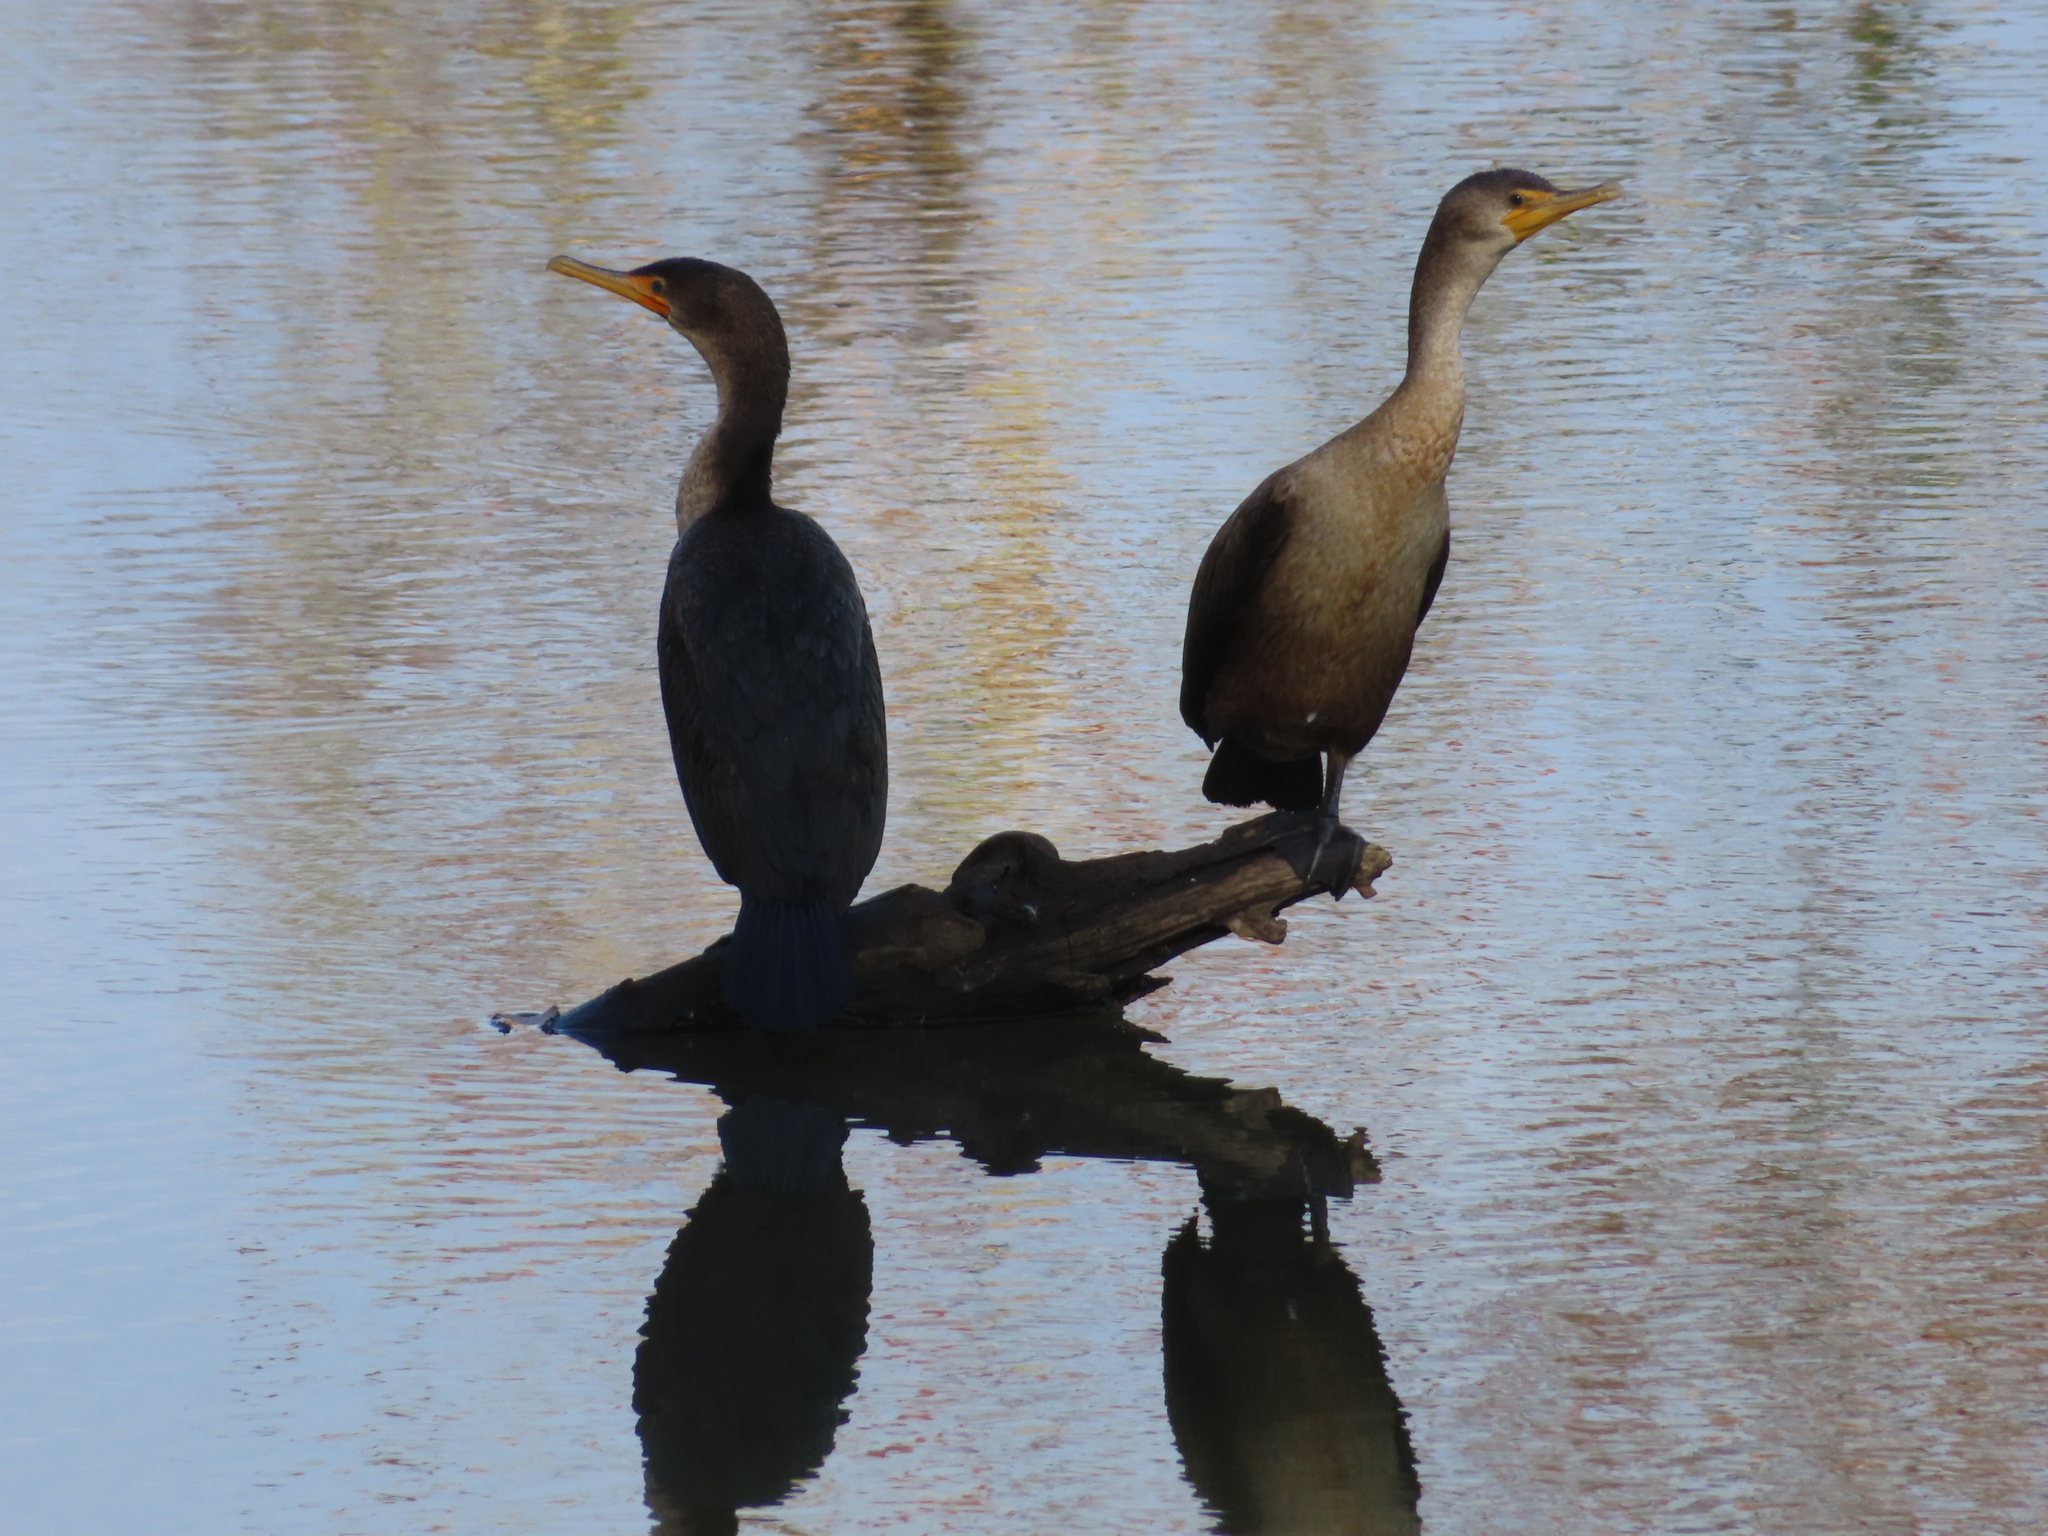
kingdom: Animalia
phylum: Chordata
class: Aves
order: Suliformes
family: Phalacrocoracidae
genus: Phalacrocorax
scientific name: Phalacrocorax auritus
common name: Double-crested cormorant
